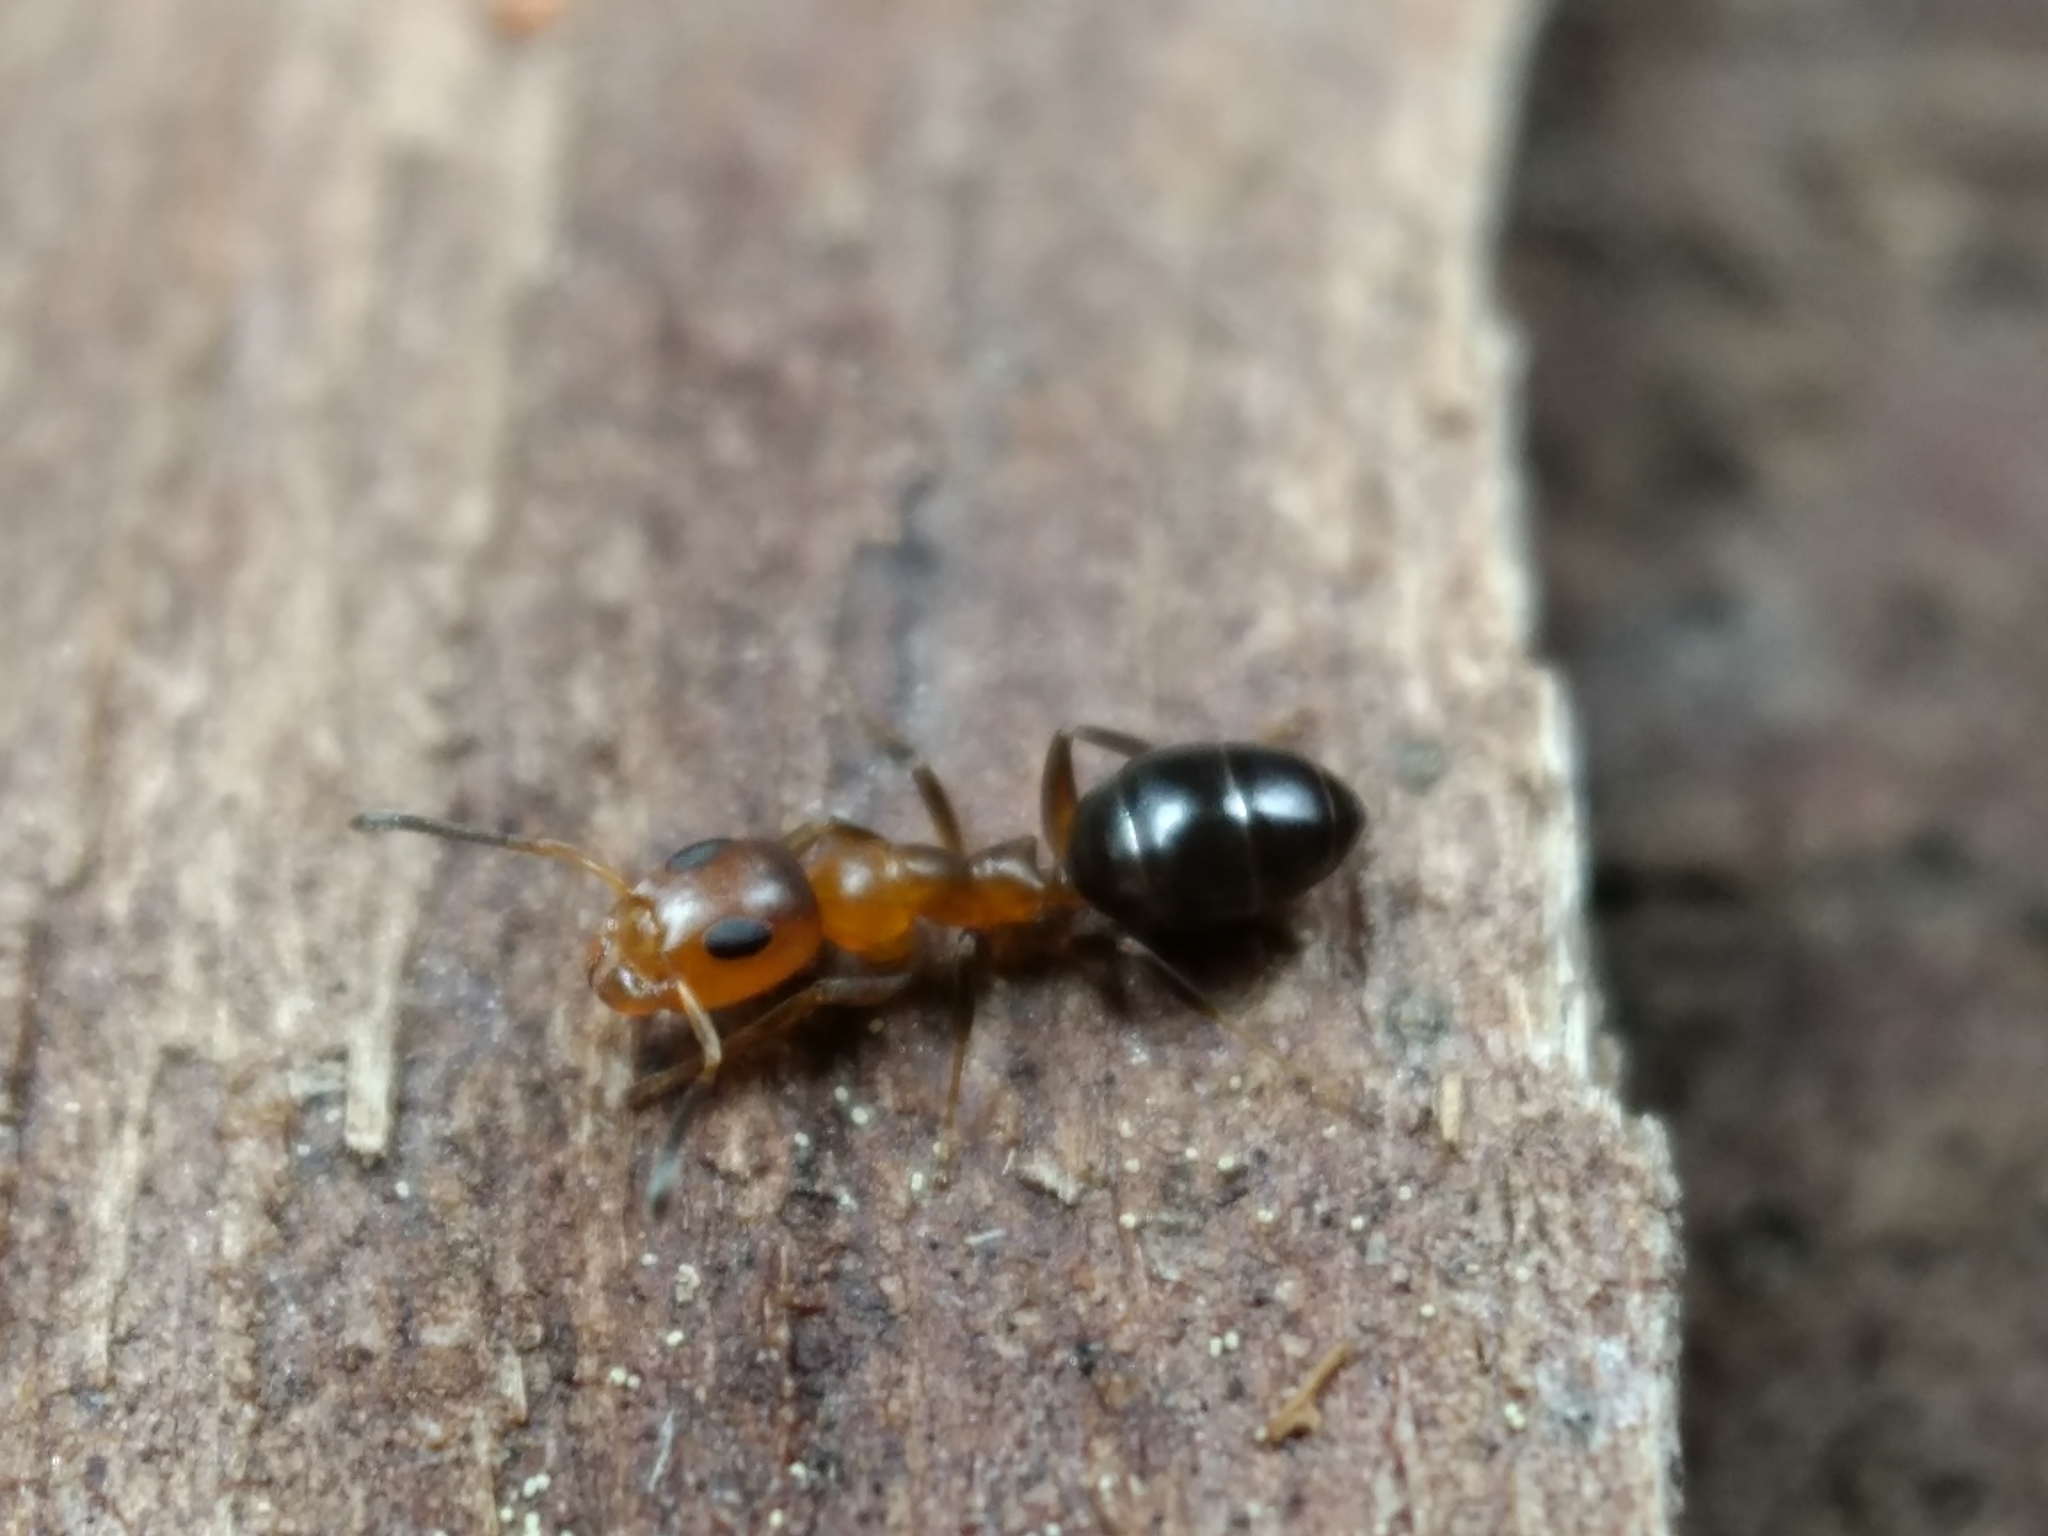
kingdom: Animalia
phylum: Arthropoda
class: Insecta
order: Hymenoptera
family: Formicidae
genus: Turneria
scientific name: Turneria bidentata
